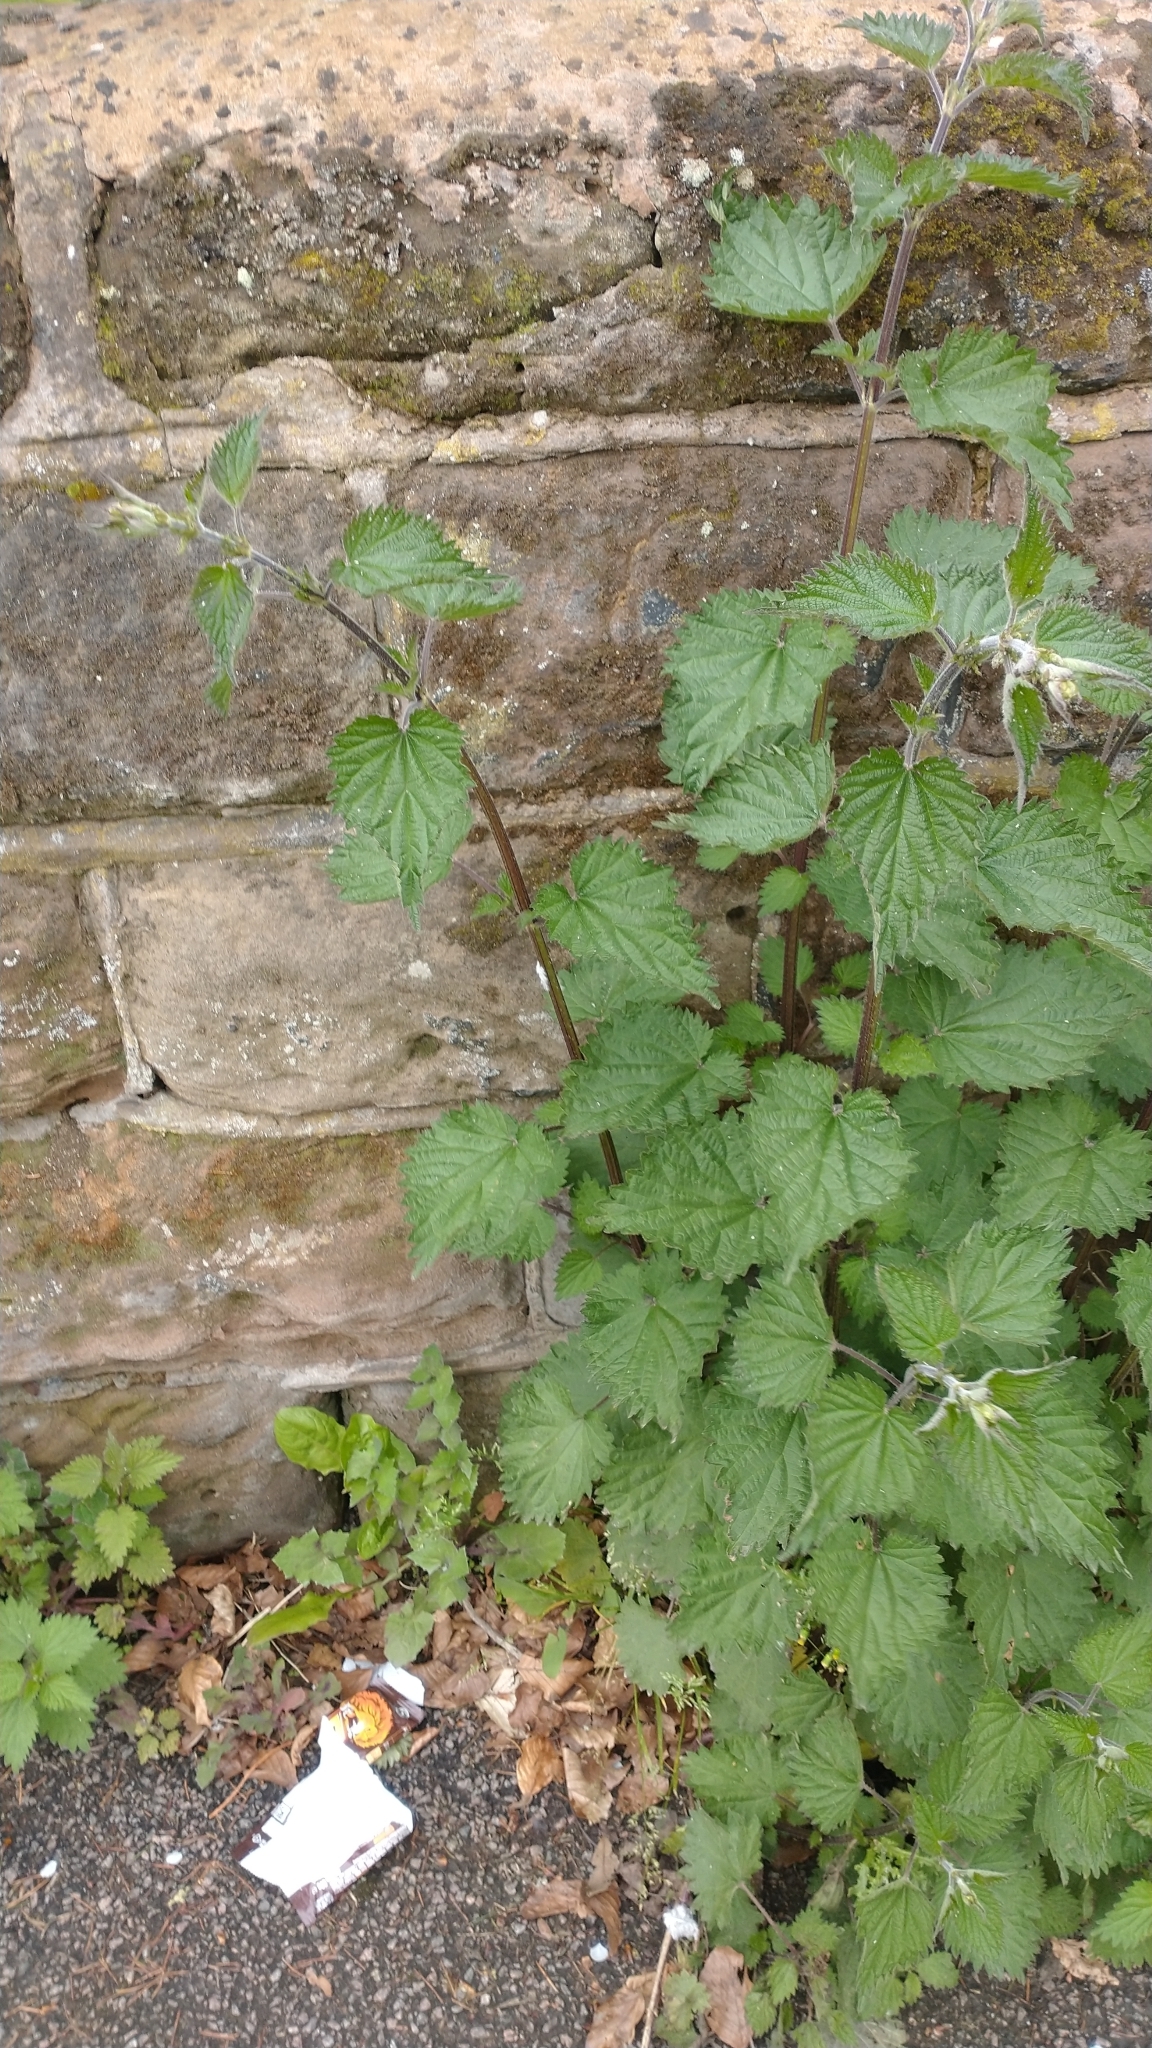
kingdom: Plantae
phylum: Tracheophyta
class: Magnoliopsida
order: Rosales
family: Urticaceae
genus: Urtica
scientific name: Urtica dioica
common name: Common nettle
